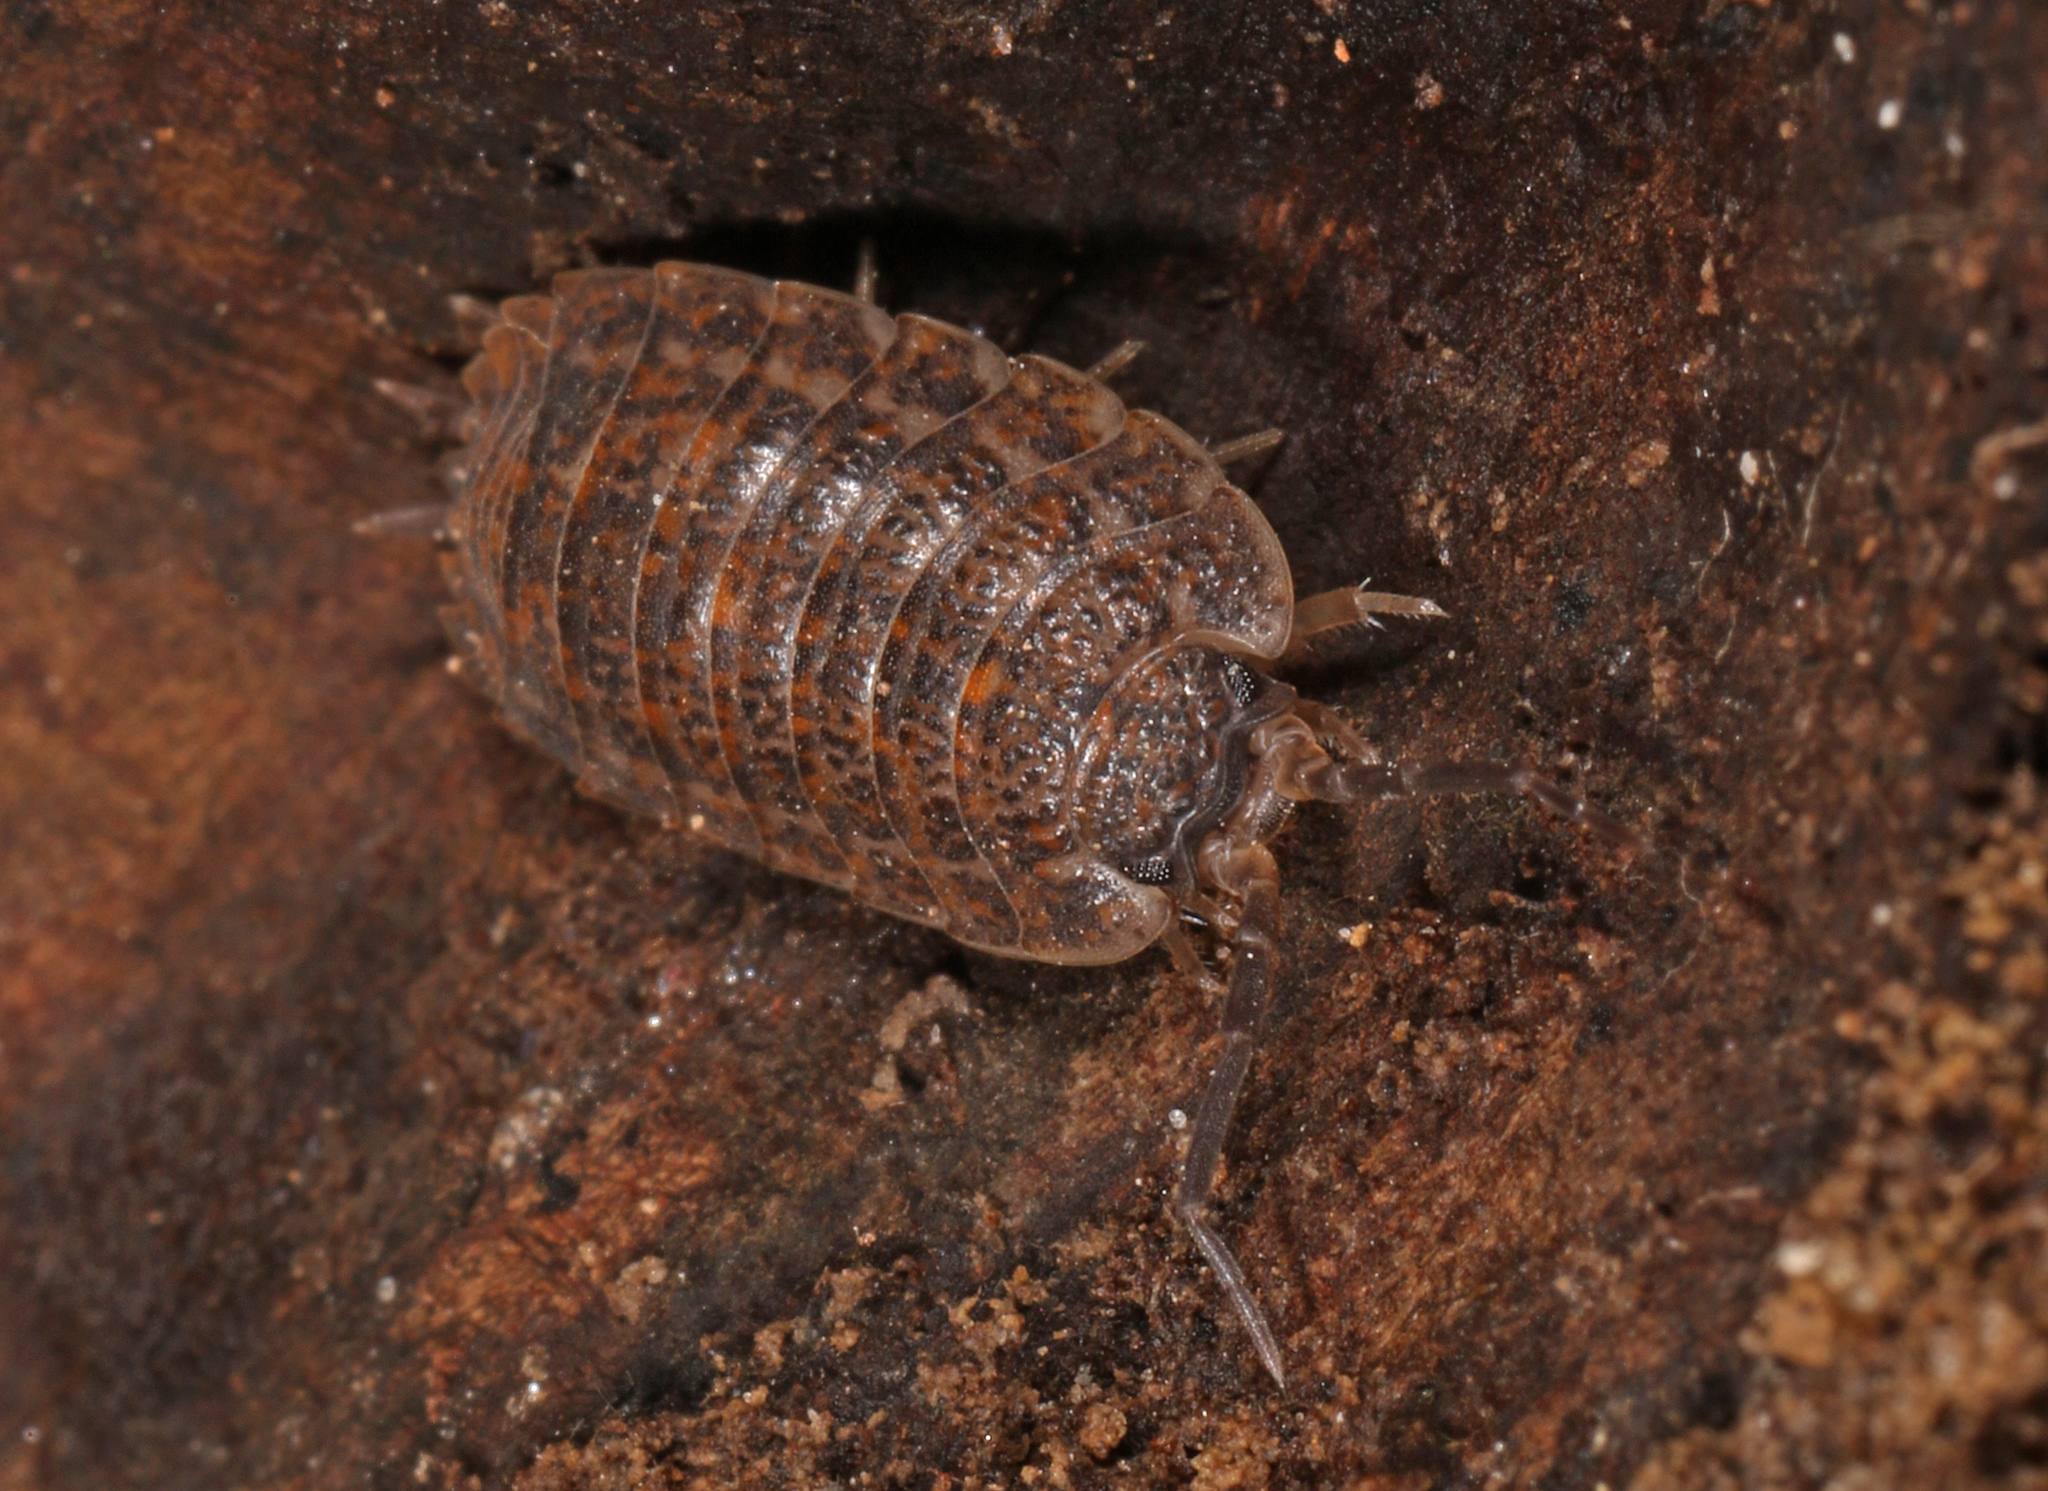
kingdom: Animalia
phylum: Arthropoda
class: Malacostraca
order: Isopoda
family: Trachelipodidae
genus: Trachelipus
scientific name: Trachelipus rathkii
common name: Isopod
